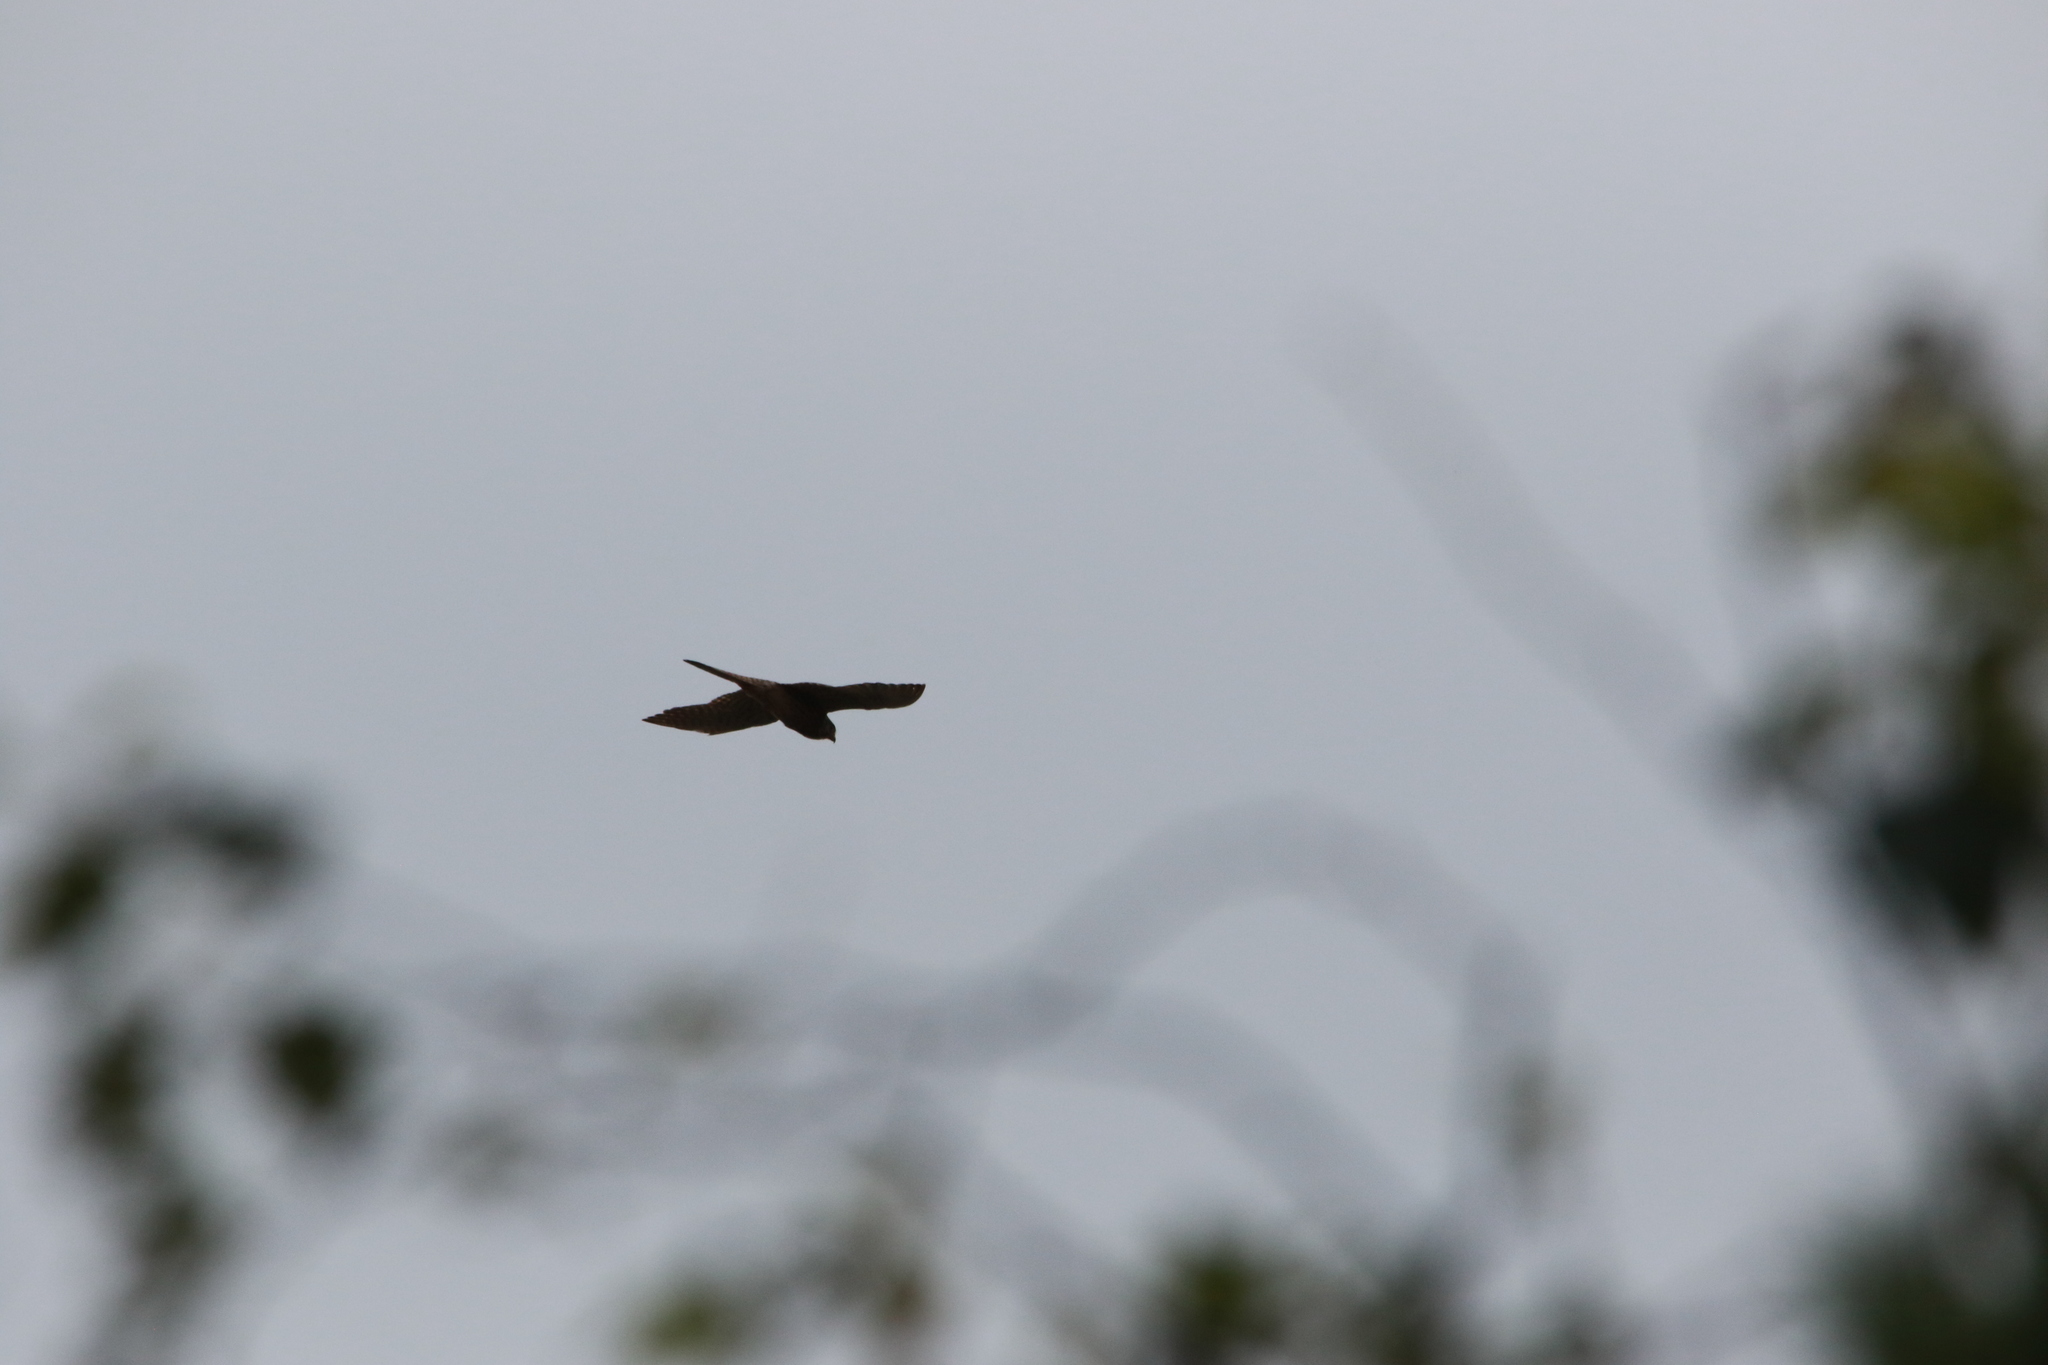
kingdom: Animalia
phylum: Chordata
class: Aves
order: Falconiformes
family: Falconidae
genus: Falco
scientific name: Falco tinnunculus
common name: Common kestrel
